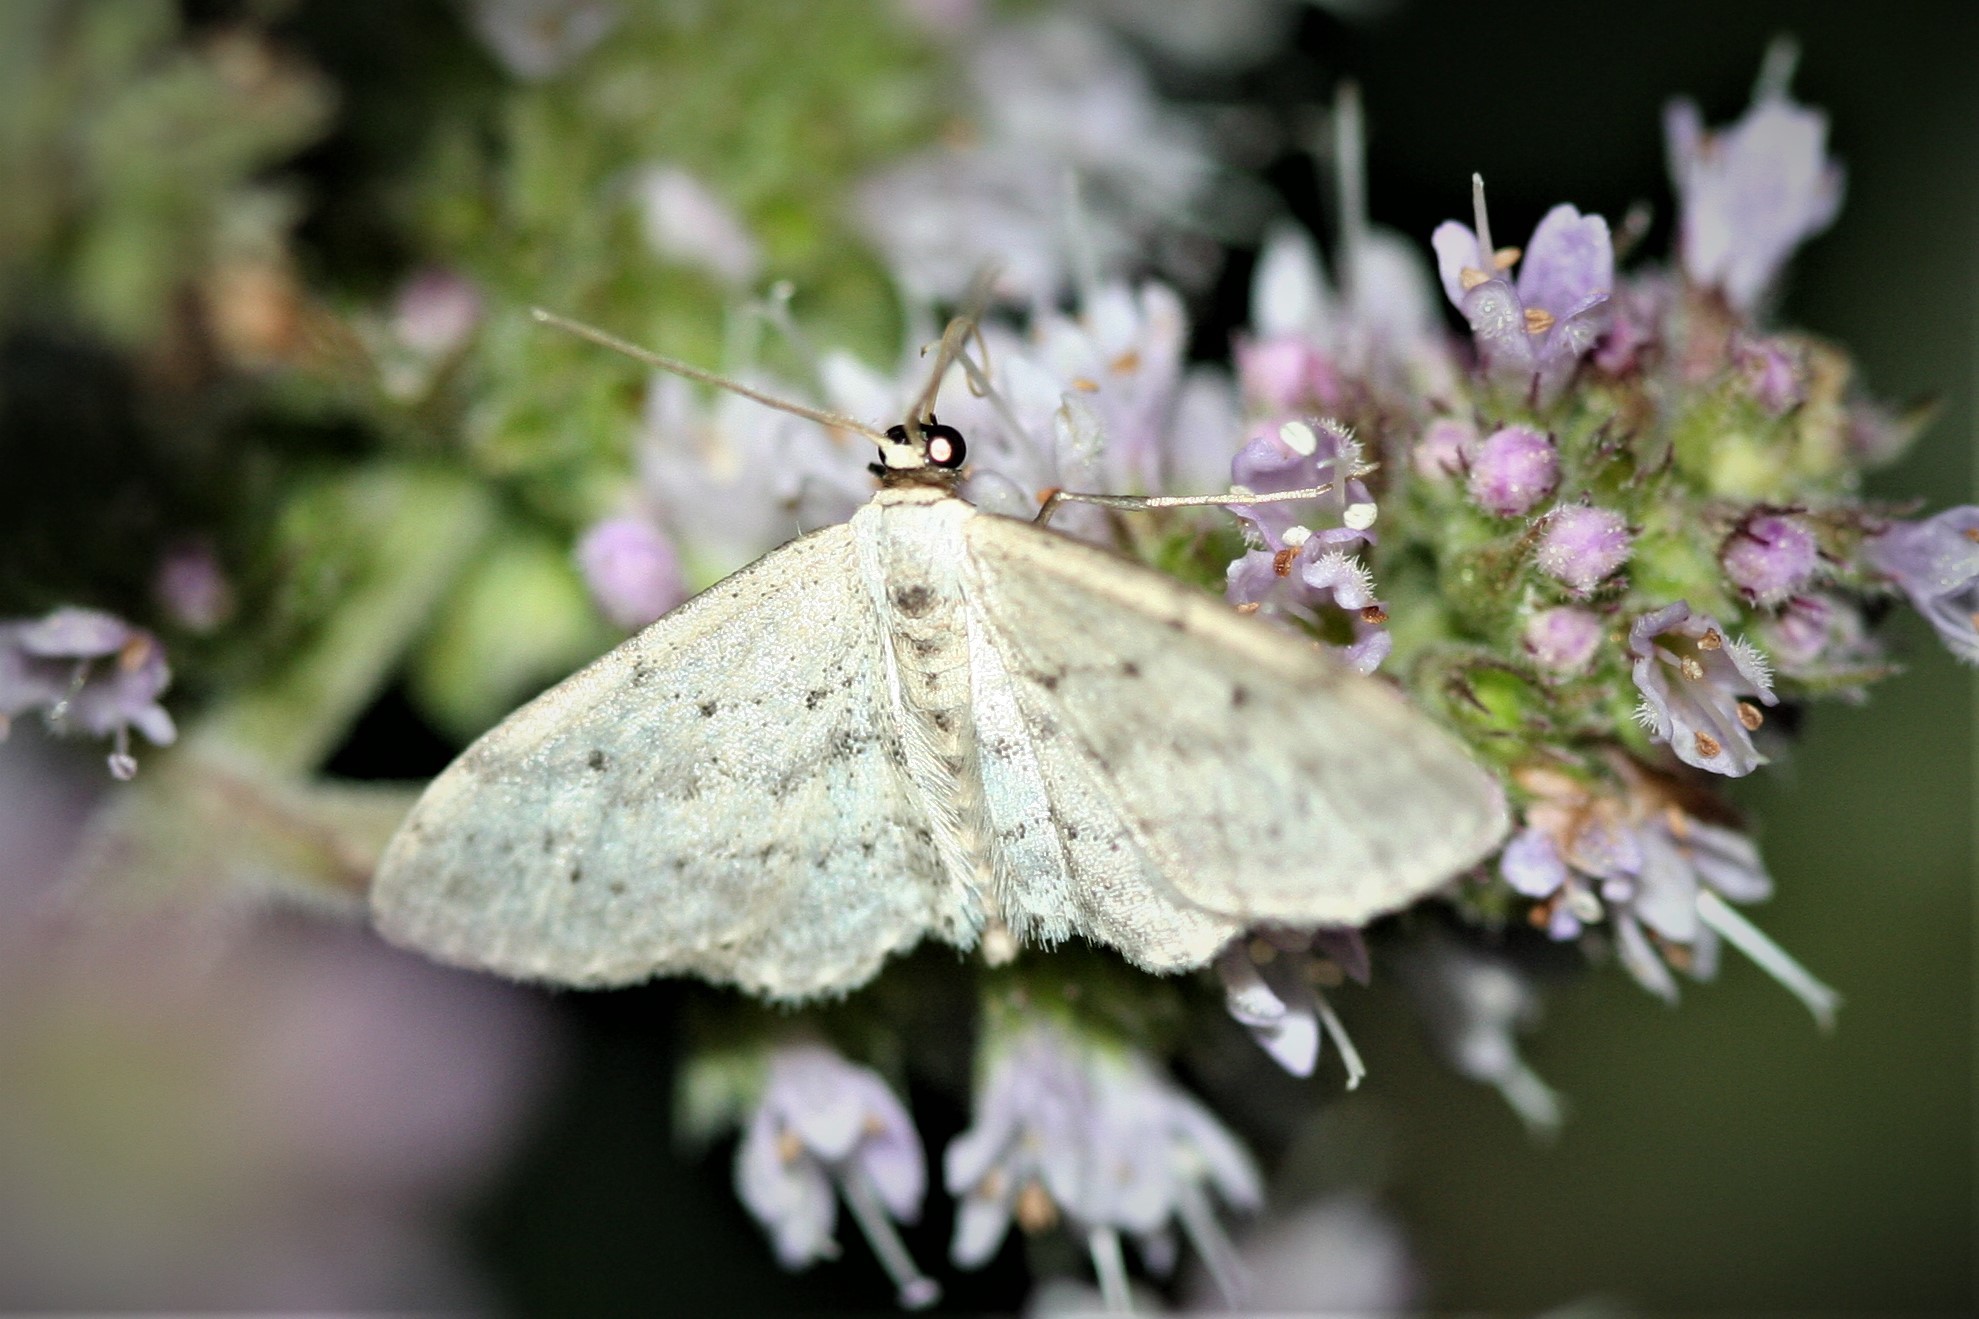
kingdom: Animalia
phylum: Arthropoda
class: Insecta
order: Lepidoptera
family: Geometridae
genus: Idaea
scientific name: Idaea seriata
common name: Small dusty wave
